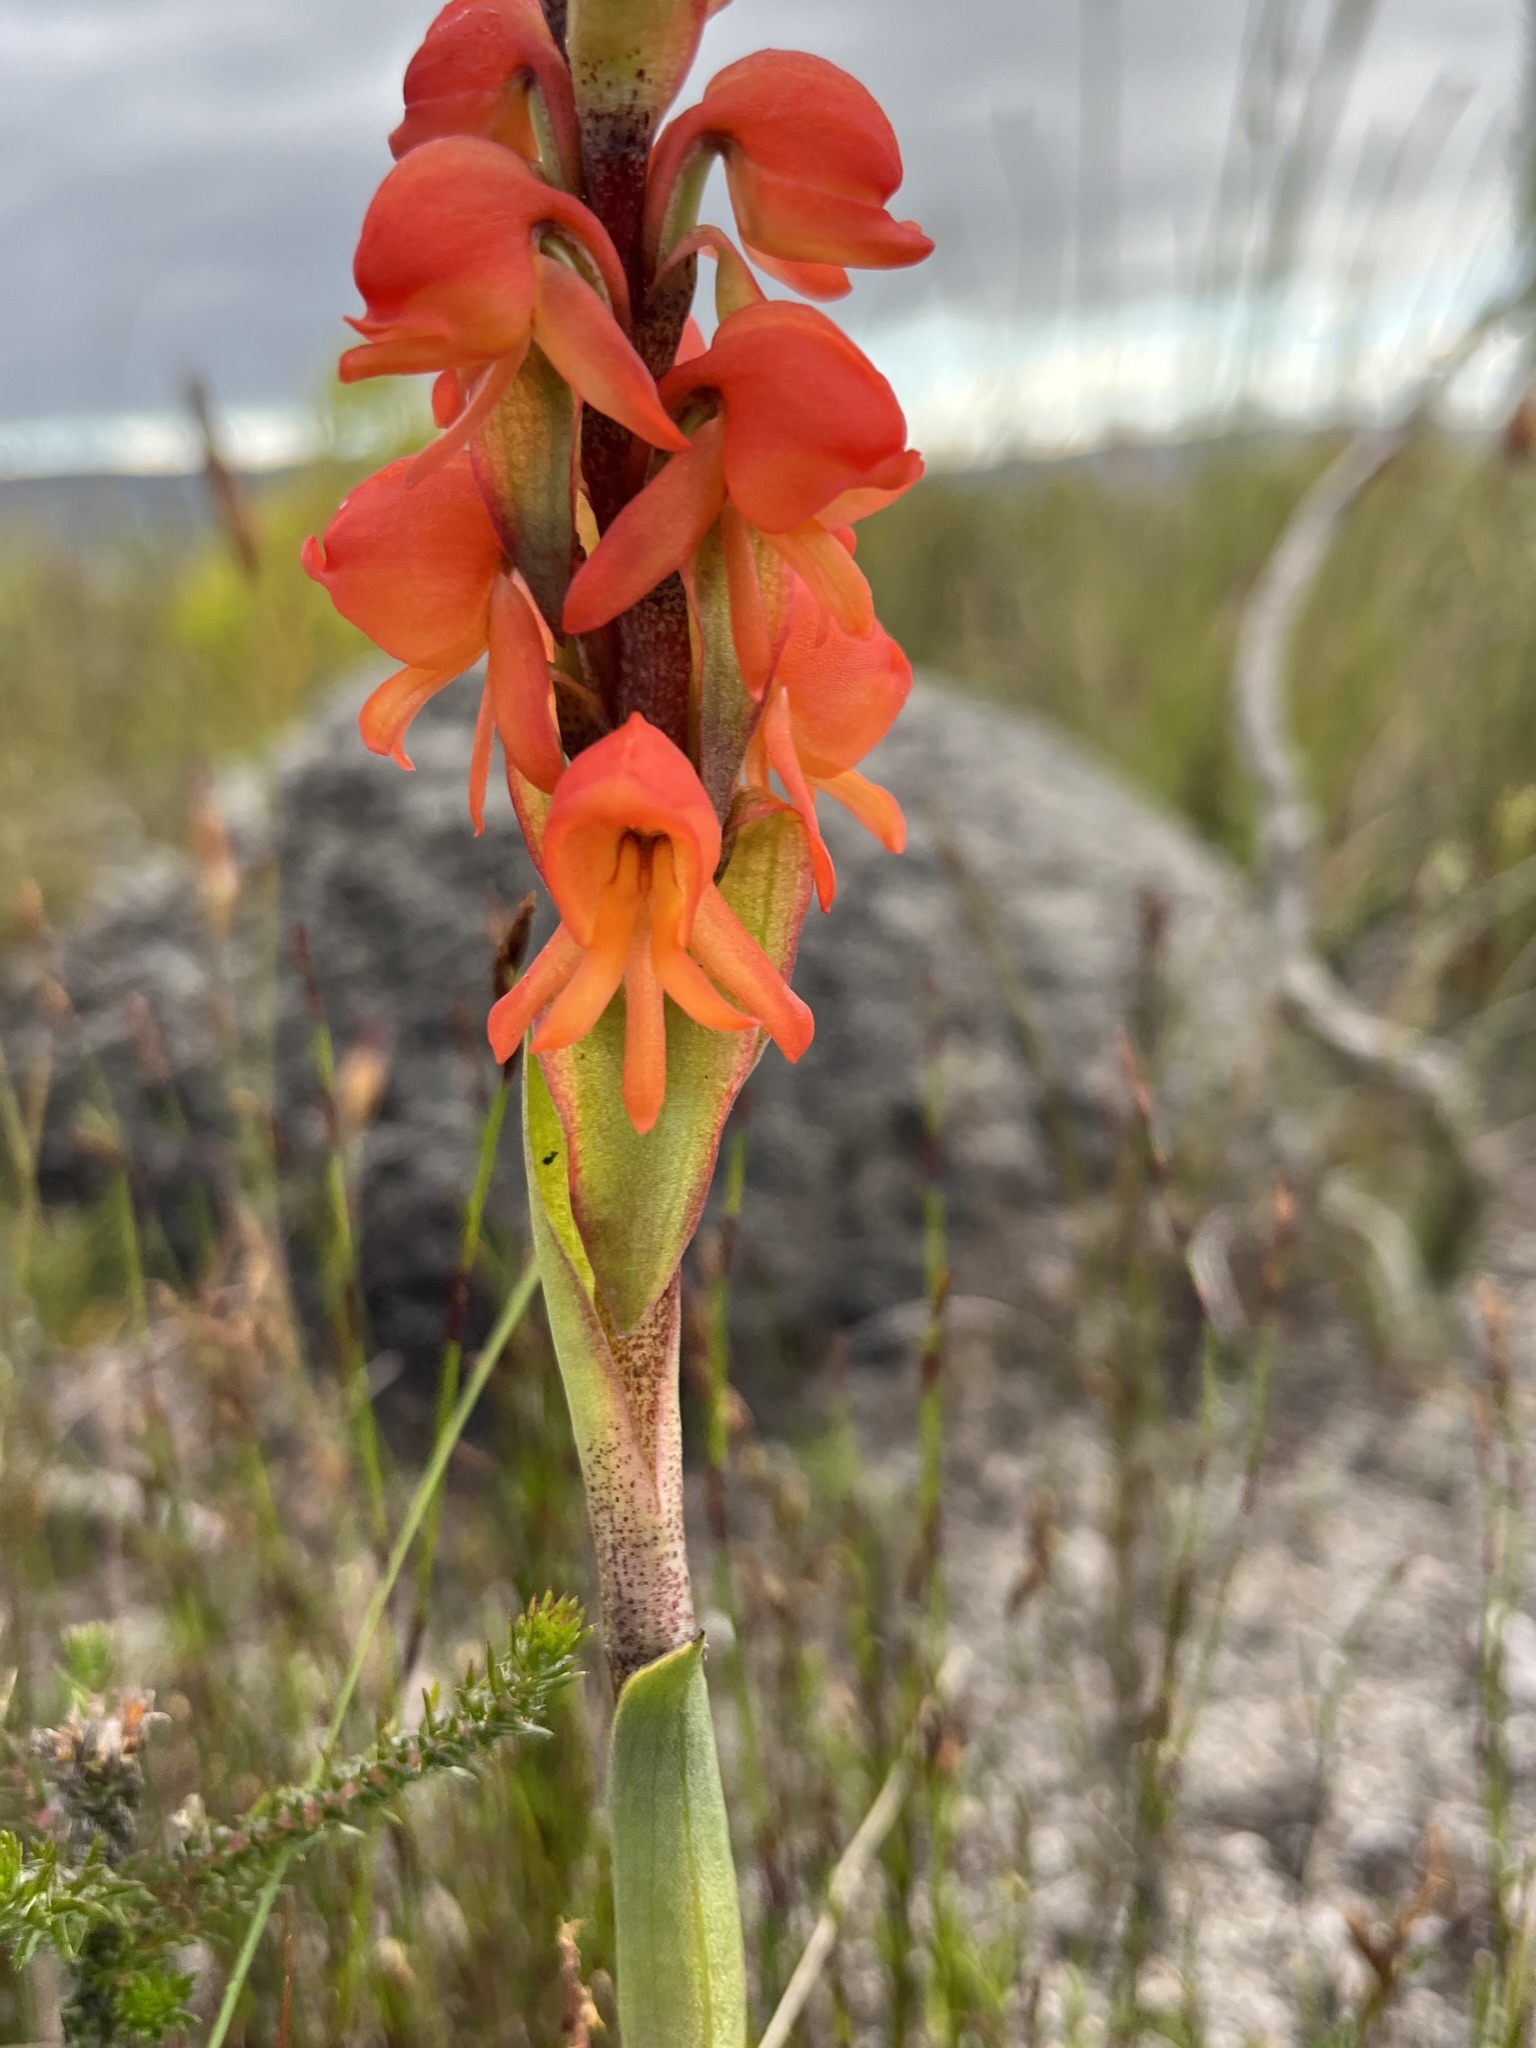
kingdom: Plantae
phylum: Tracheophyta
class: Liliopsida
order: Asparagales
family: Orchidaceae
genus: Satyrium
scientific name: Satyrium coriifolium
